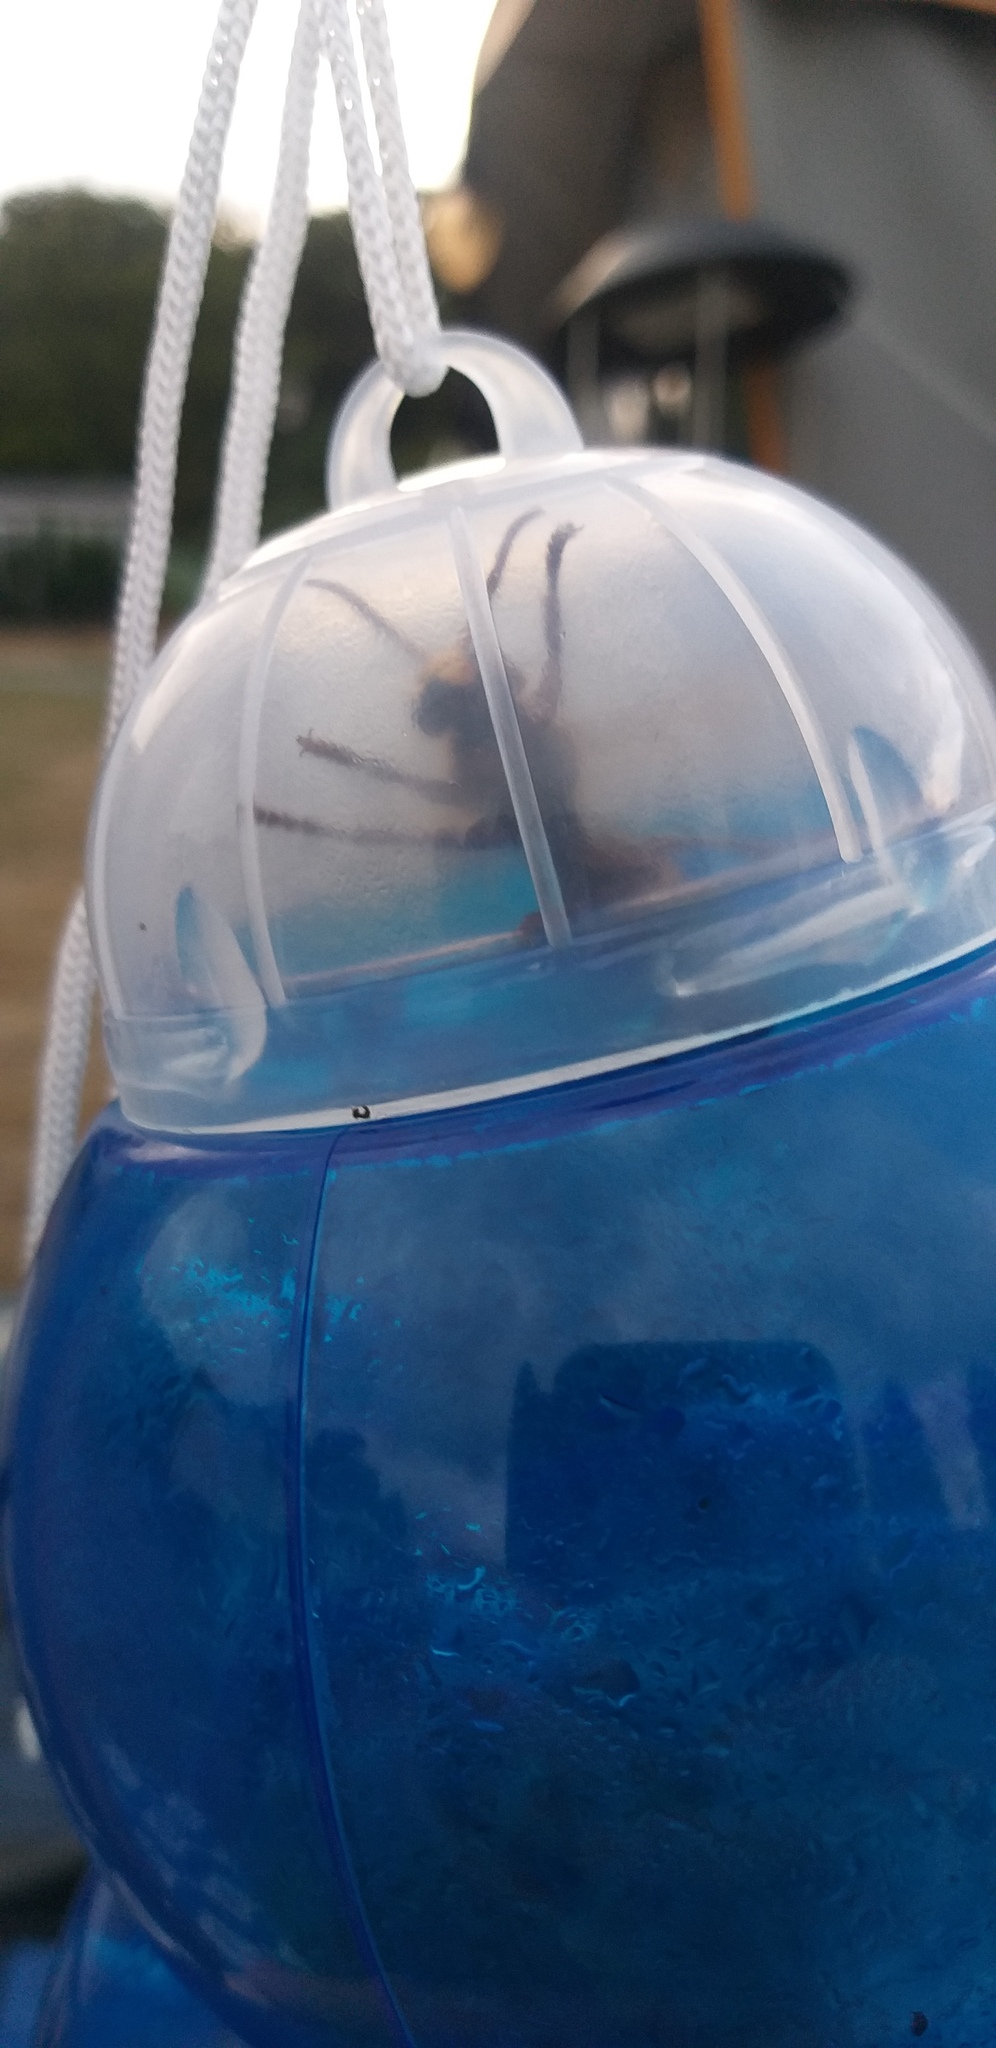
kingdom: Animalia
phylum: Arthropoda
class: Insecta
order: Hymenoptera
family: Vespidae
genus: Vespa
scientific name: Vespa crabro
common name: Hornet
